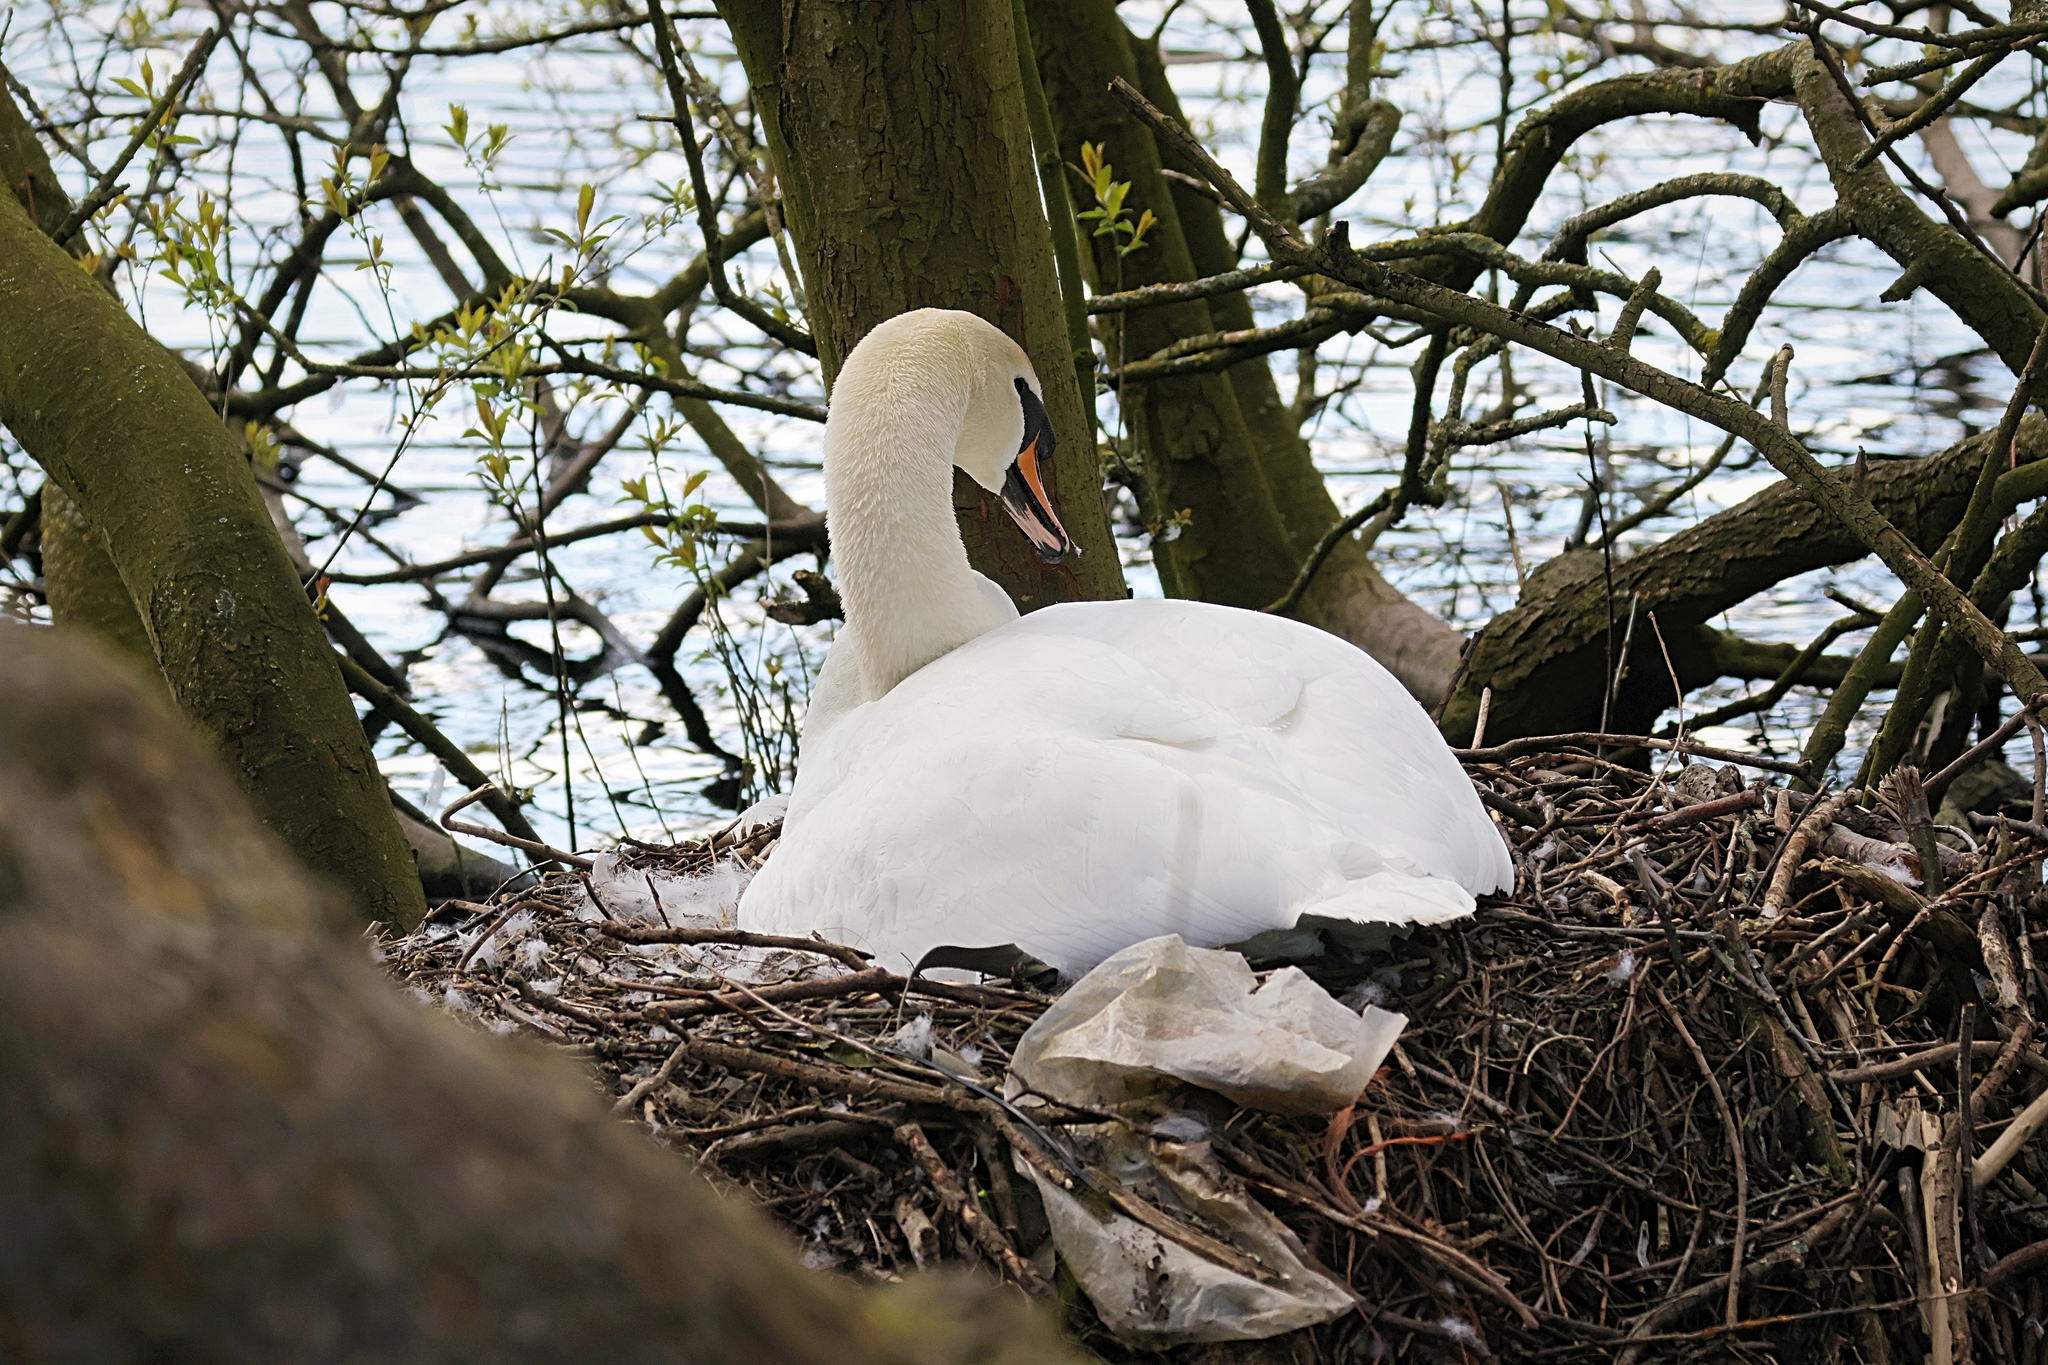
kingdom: Animalia
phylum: Chordata
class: Aves
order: Anseriformes
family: Anatidae
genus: Cygnus
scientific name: Cygnus olor
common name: Mute swan
